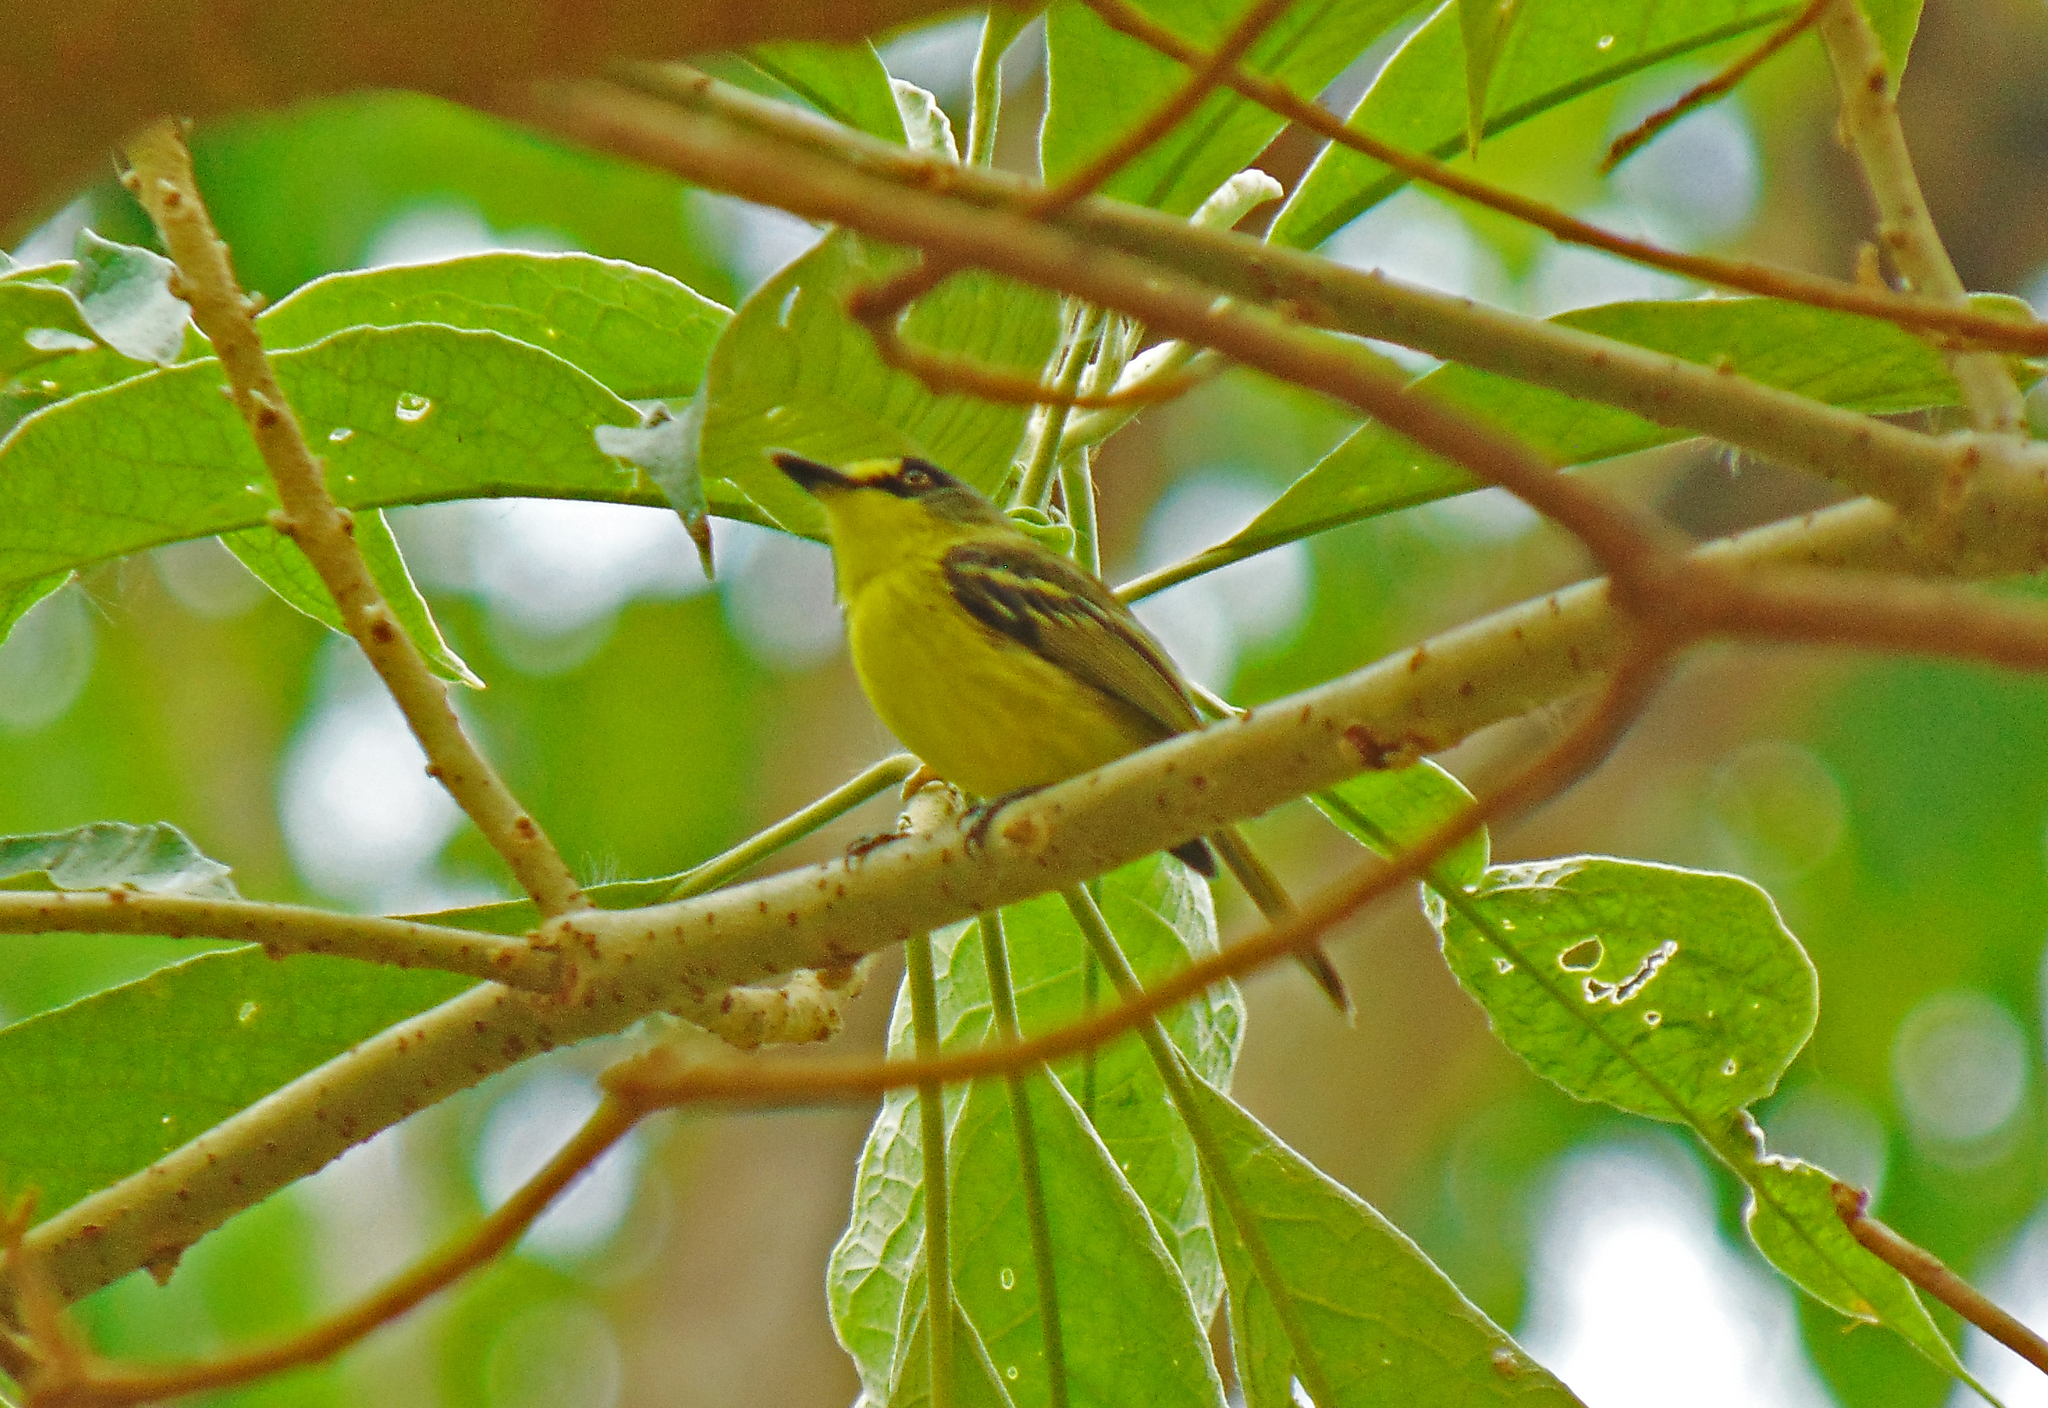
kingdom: Animalia
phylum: Chordata
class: Aves
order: Passeriformes
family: Tyrannidae
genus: Todirostrum
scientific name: Todirostrum poliocephalum
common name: Yellow-lored tody-flycatcher
